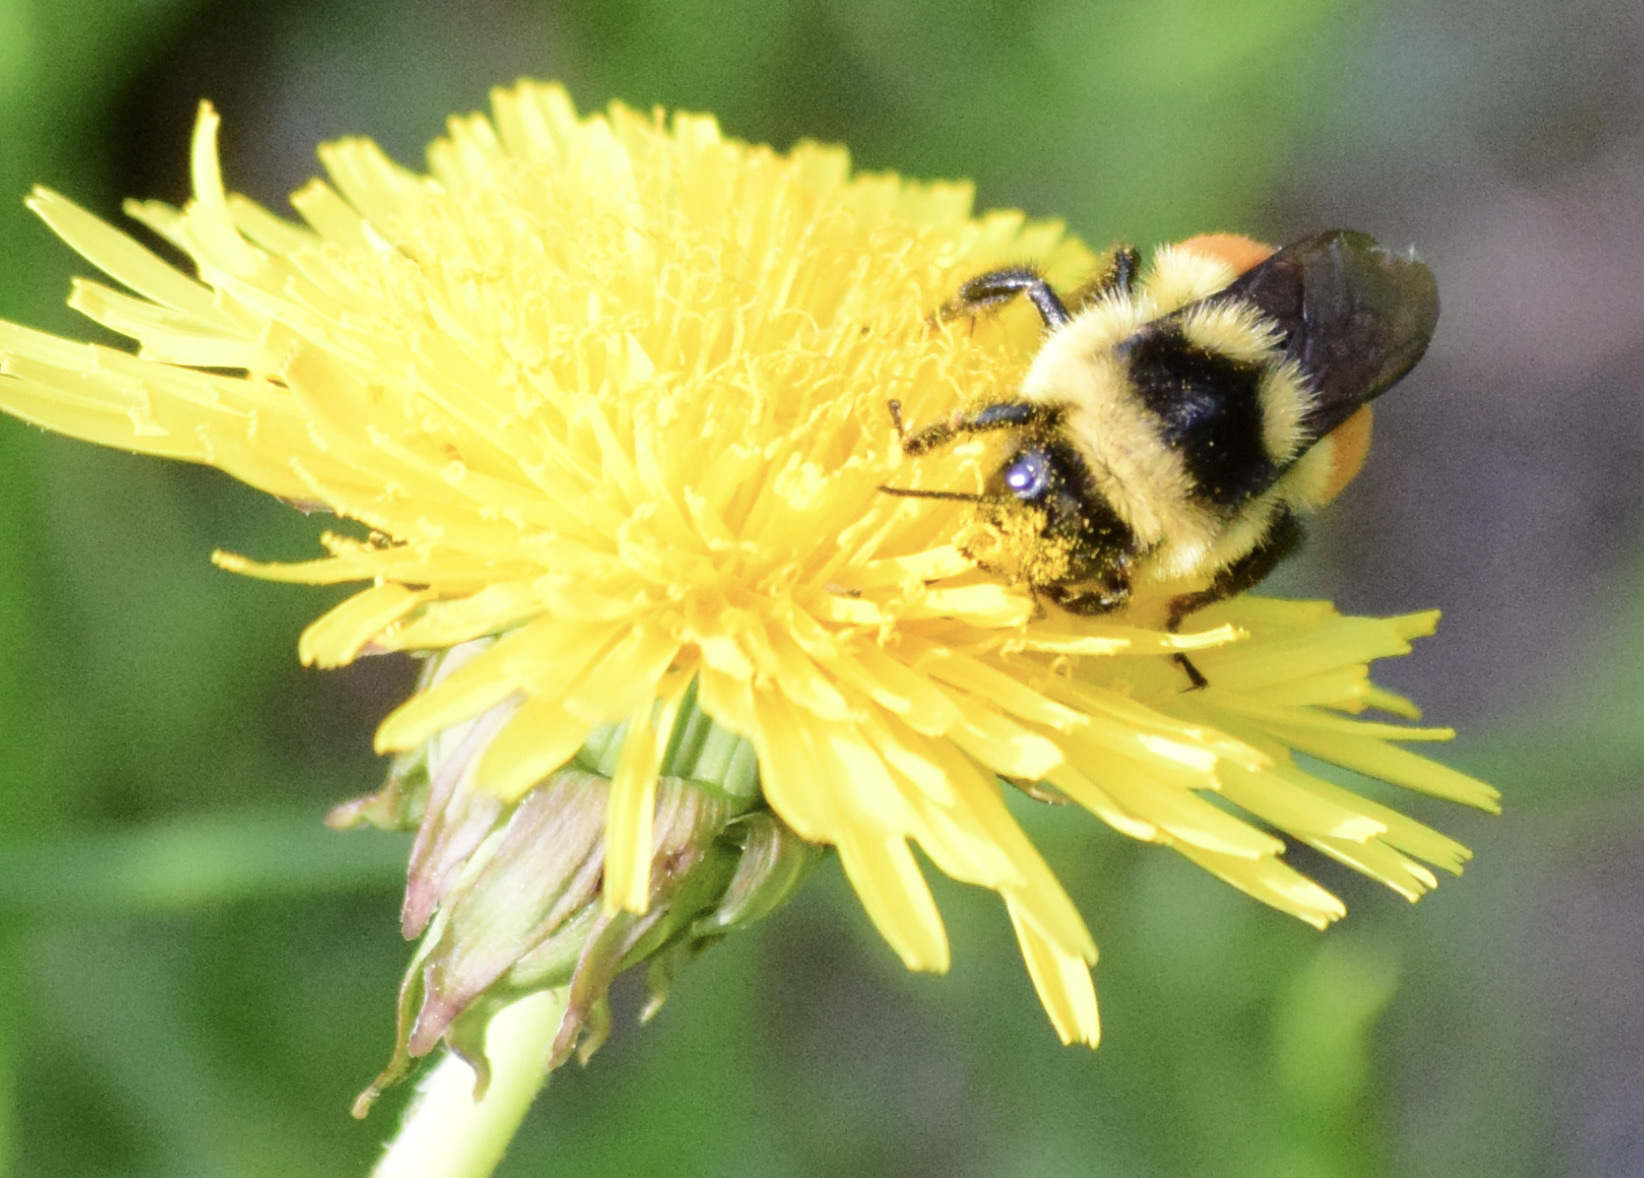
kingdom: Animalia
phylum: Arthropoda
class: Insecta
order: Hymenoptera
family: Apidae
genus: Bombus
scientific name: Bombus ternarius
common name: Tri-colored bumble bee
